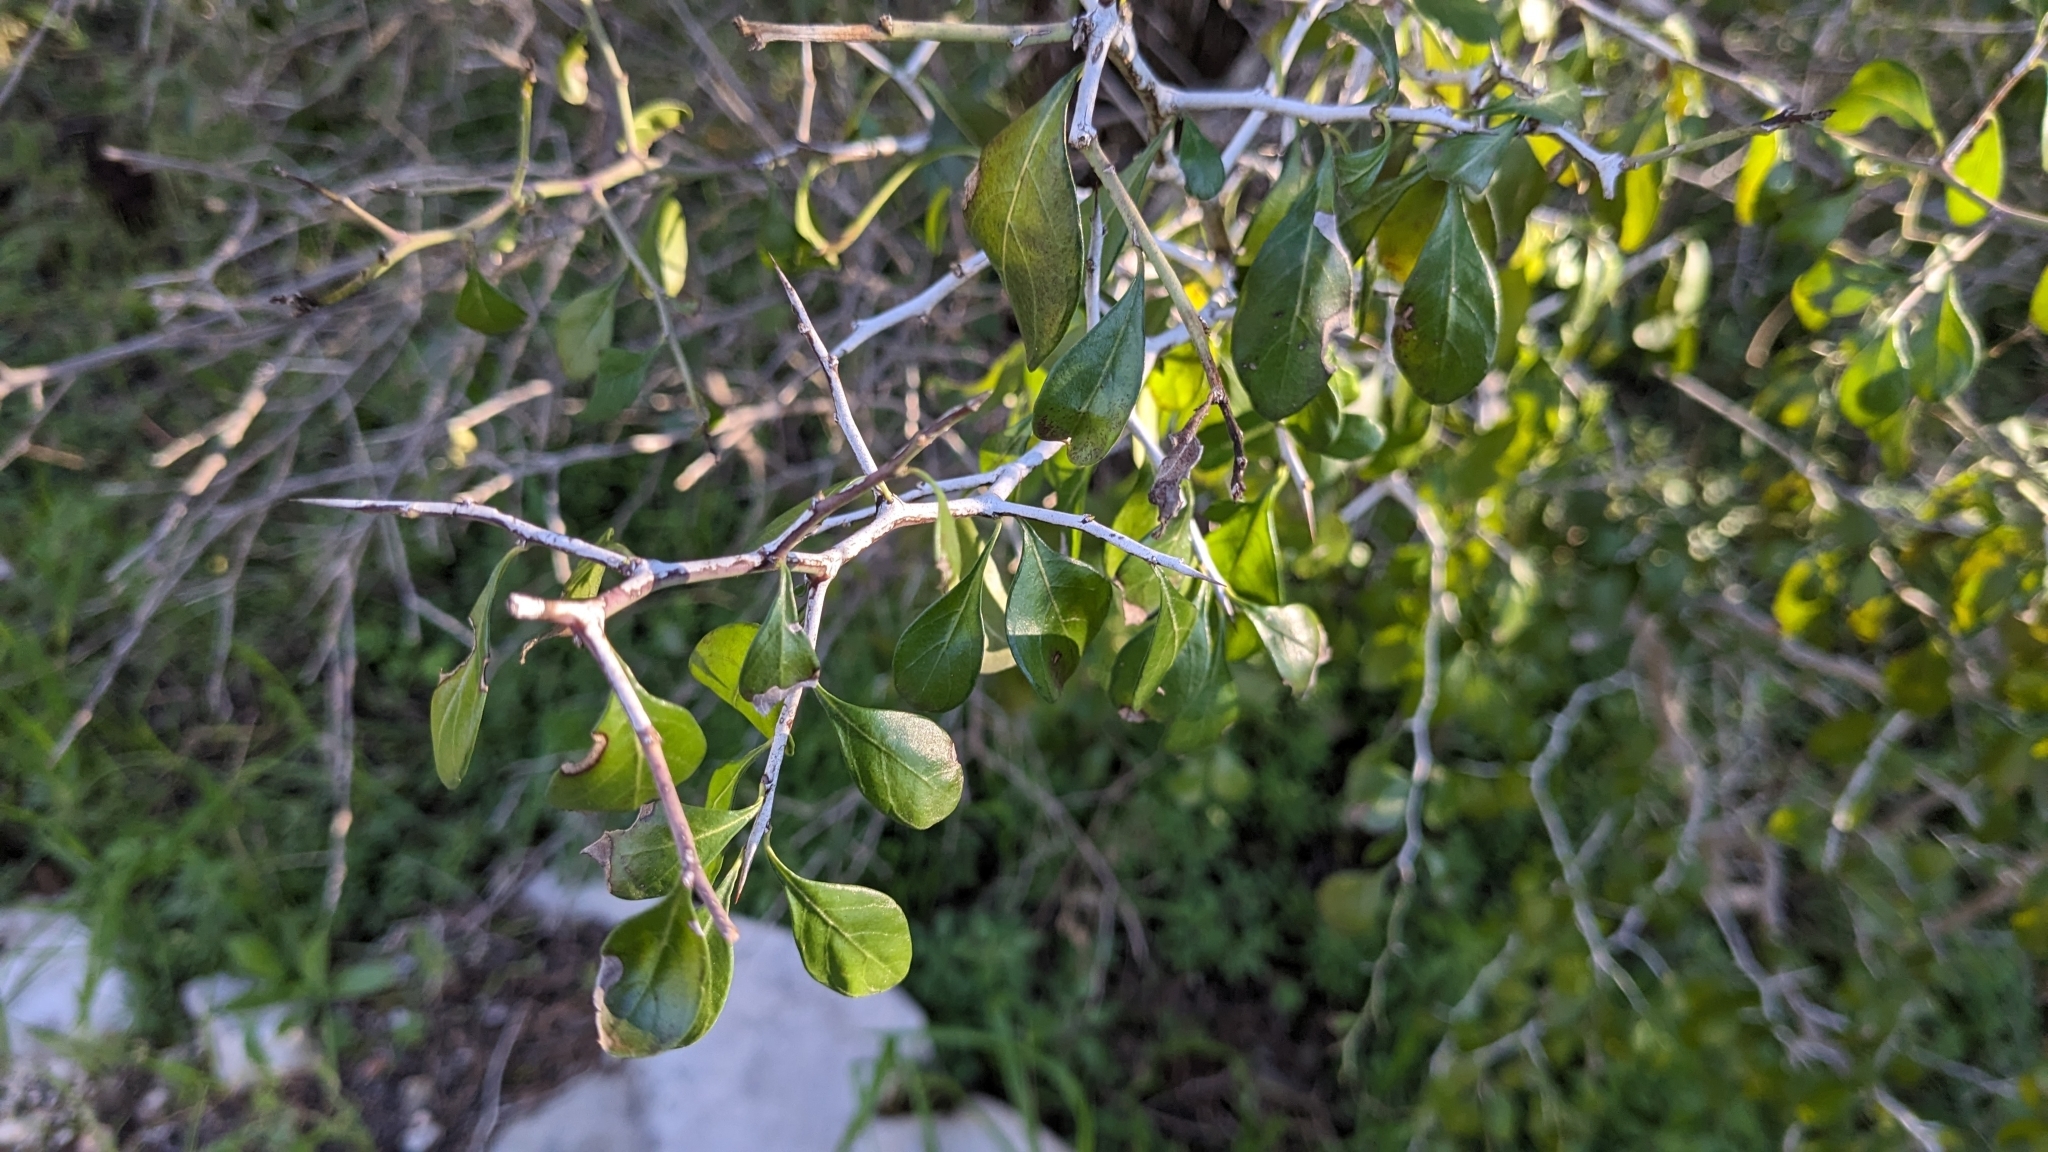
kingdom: Plantae
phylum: Tracheophyta
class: Magnoliopsida
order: Rosales
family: Rhamnaceae
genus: Condalia
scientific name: Condalia hookeri
